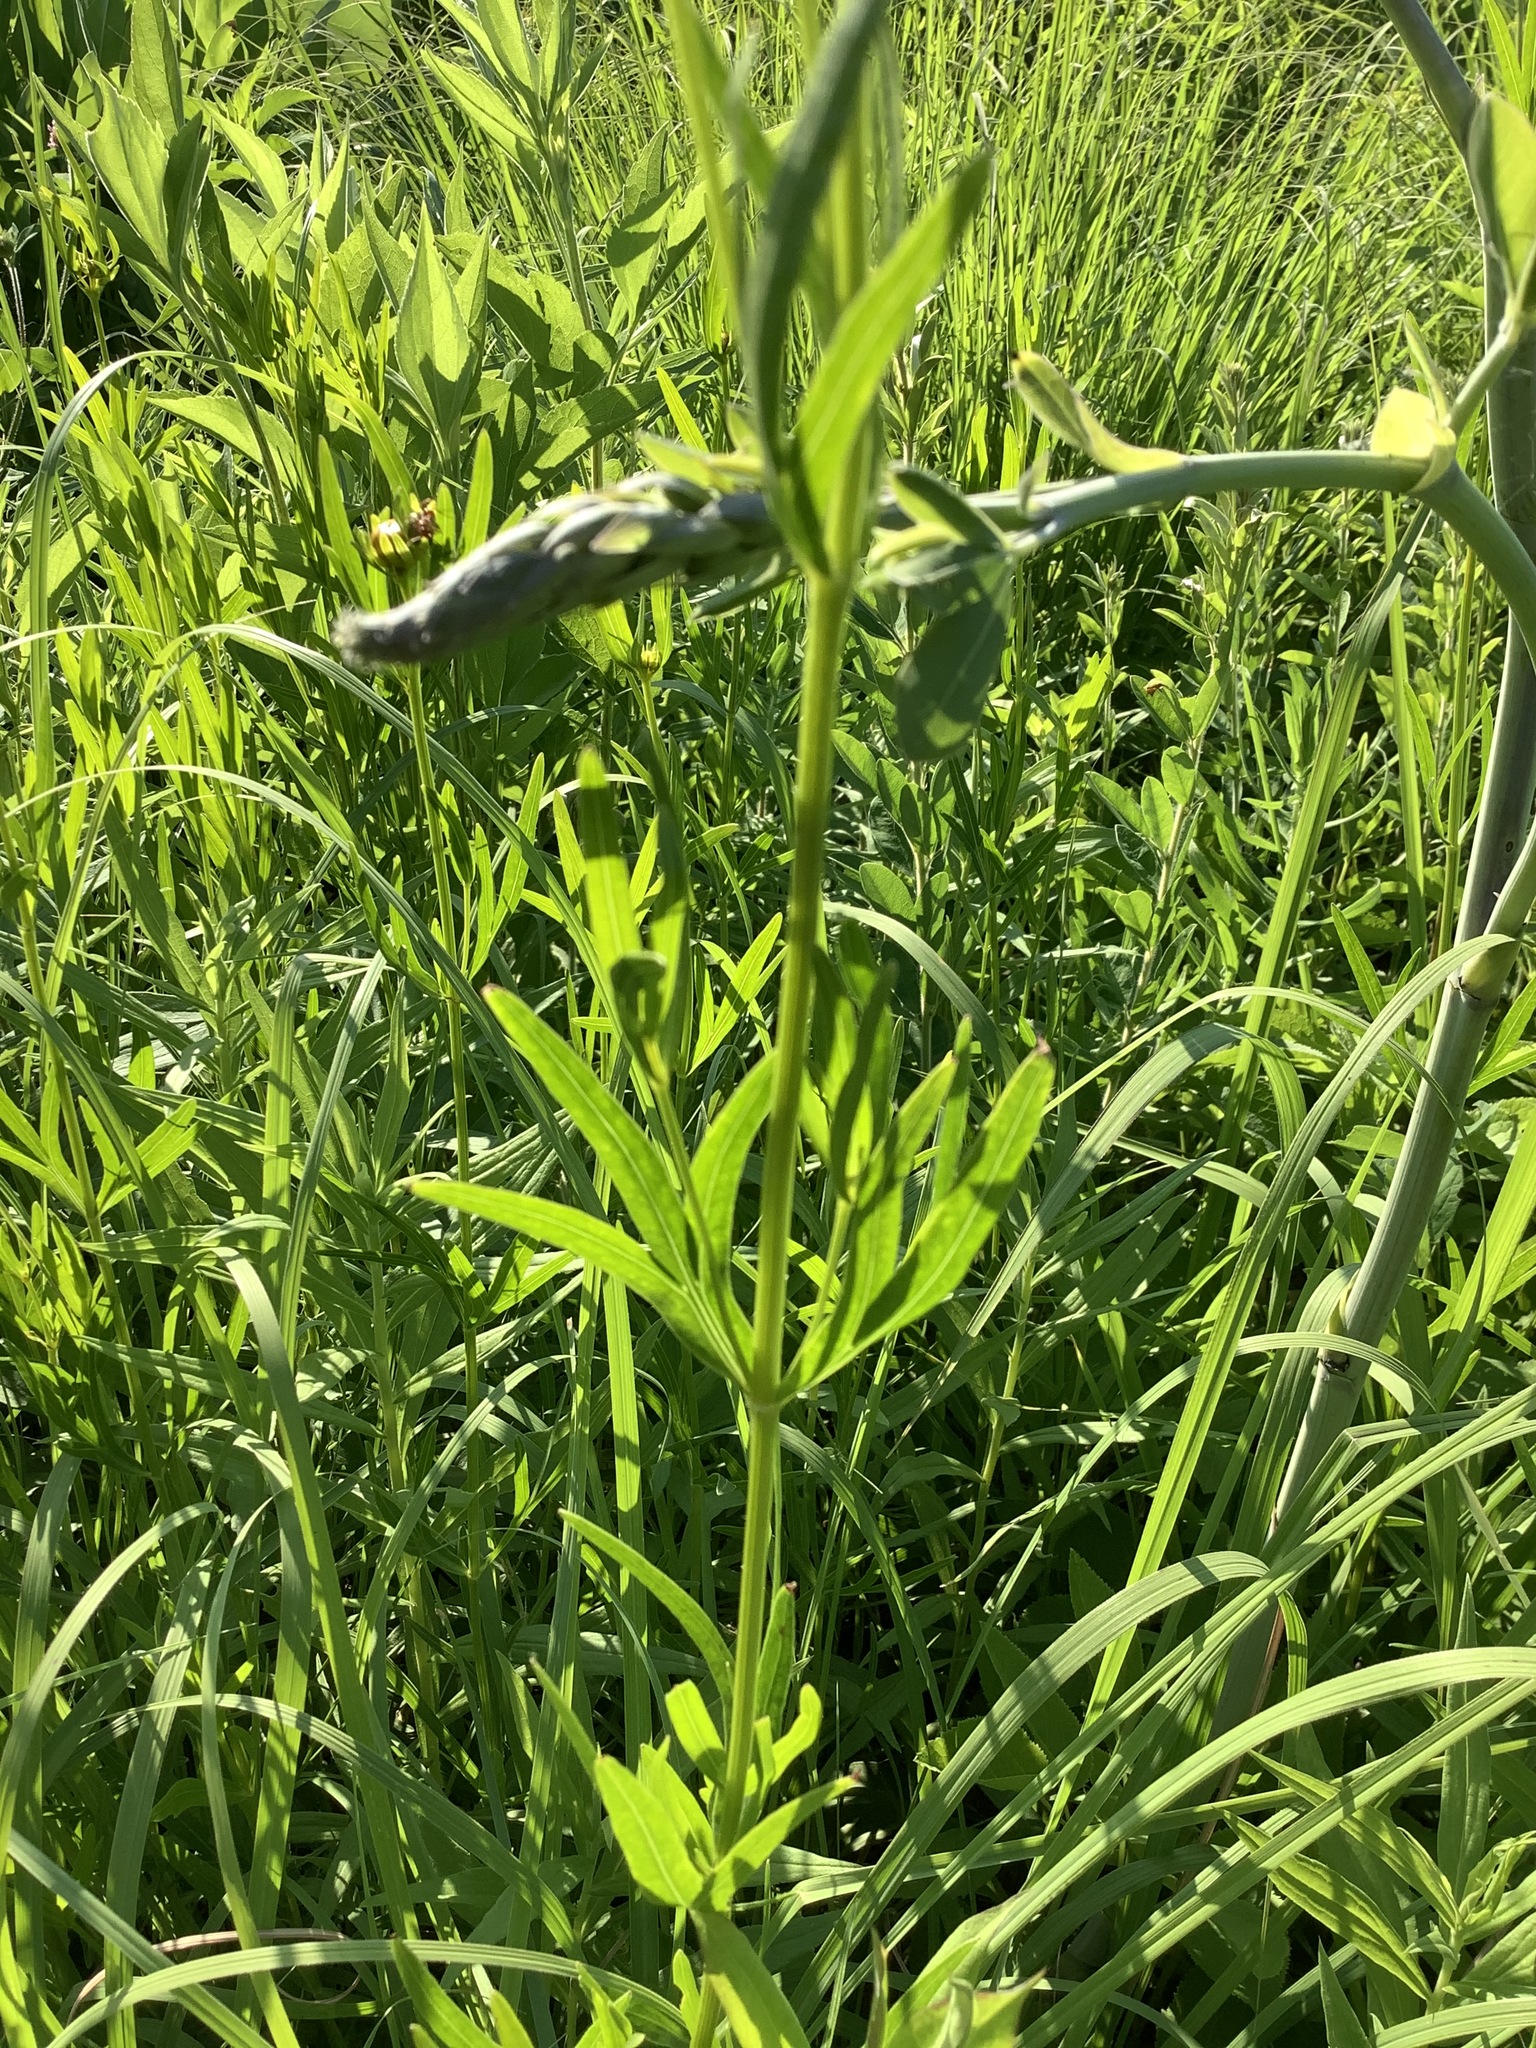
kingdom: Plantae
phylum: Tracheophyta
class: Magnoliopsida
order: Asterales
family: Asteraceae
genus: Coreopsis
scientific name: Coreopsis palmata
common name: Prairie coreopsis
